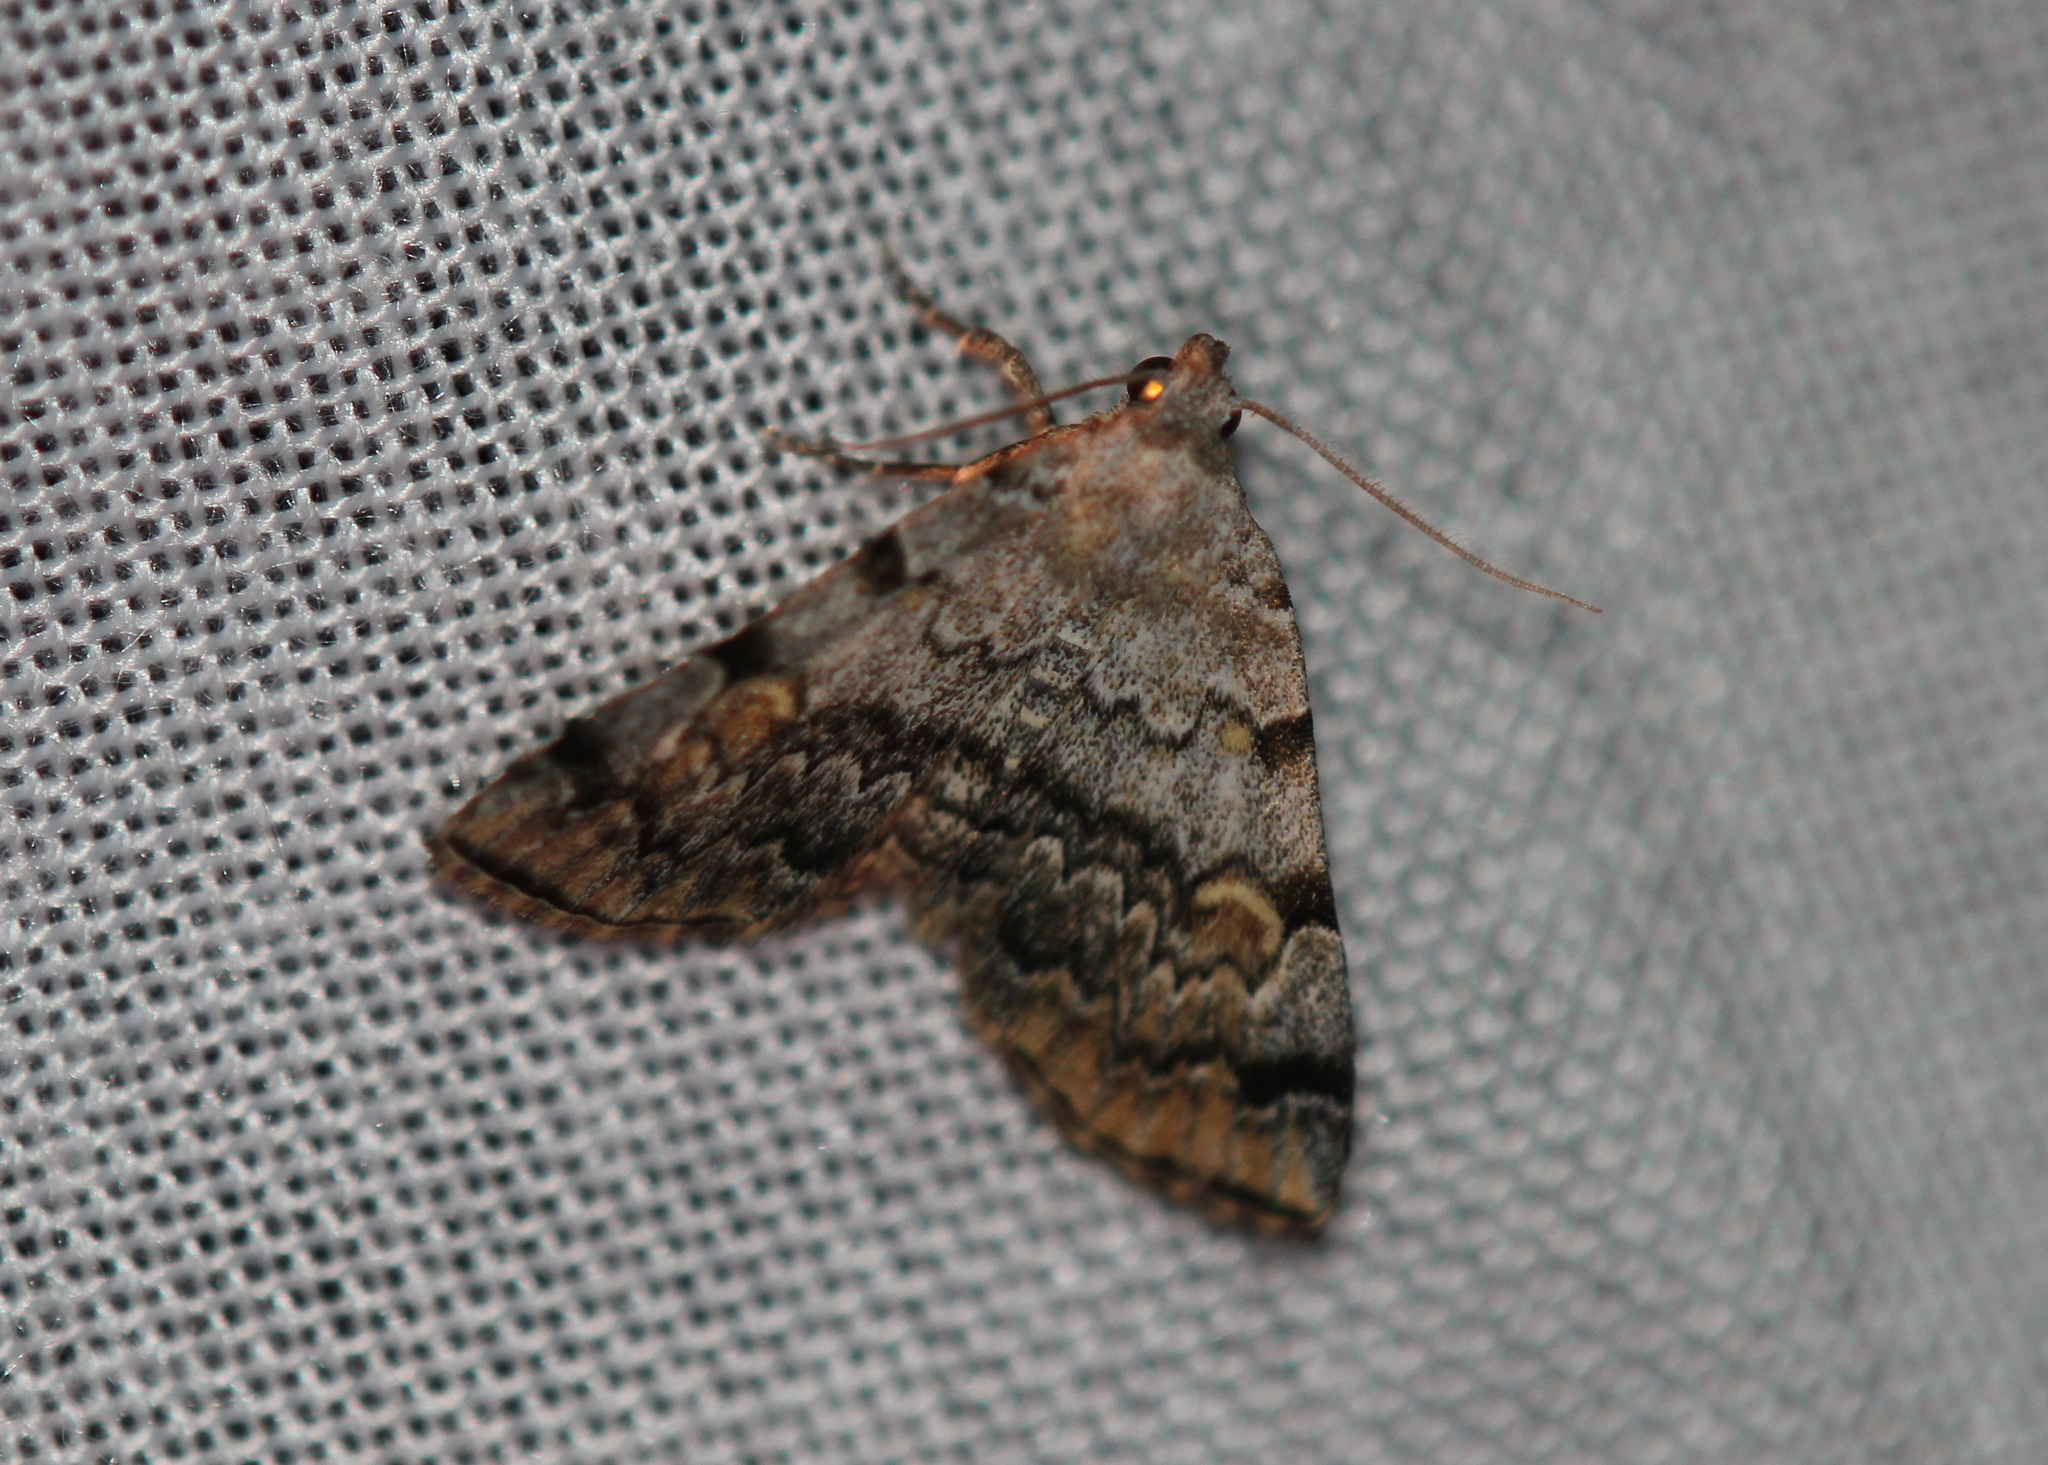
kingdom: Animalia
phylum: Arthropoda
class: Insecta
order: Lepidoptera
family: Erebidae
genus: Idia
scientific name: Idia americalis
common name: American idia moth
